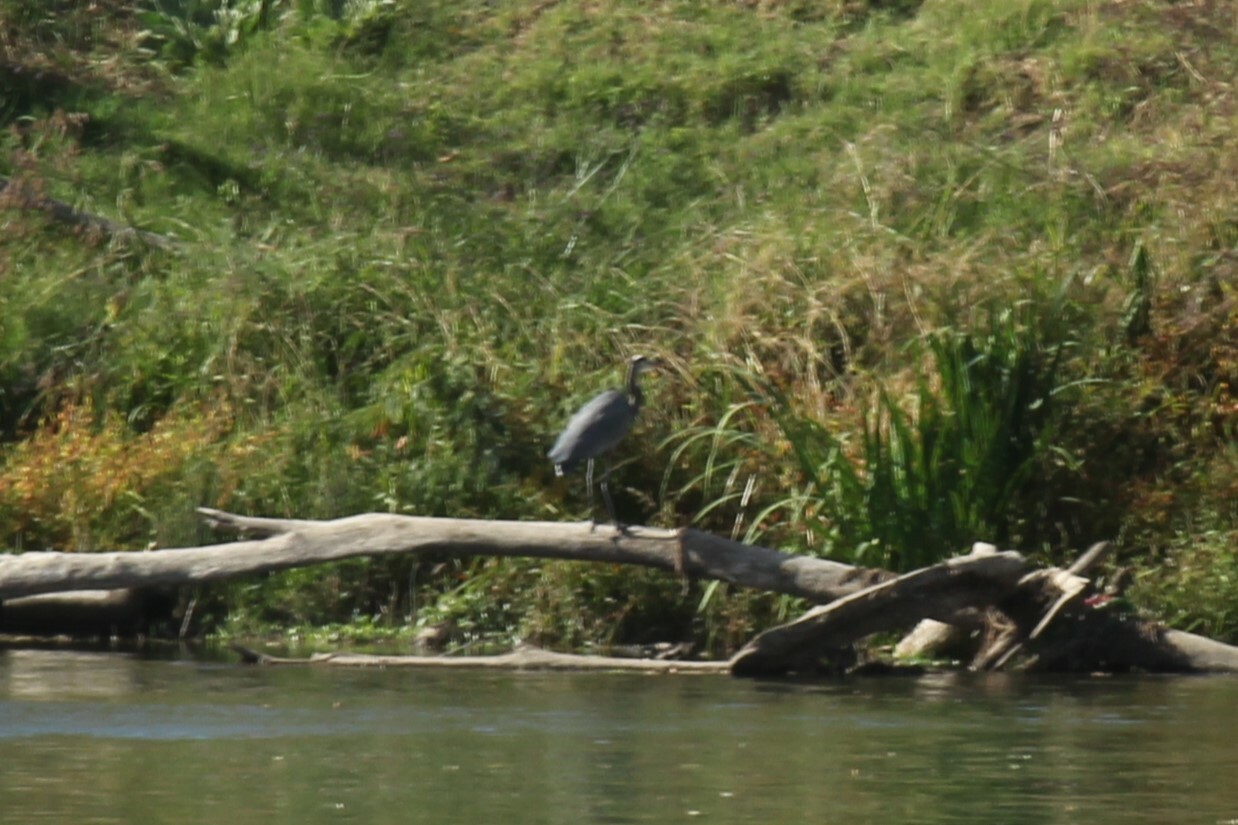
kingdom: Animalia
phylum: Chordata
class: Aves
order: Pelecaniformes
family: Ardeidae
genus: Ardea
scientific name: Ardea herodias
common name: Great blue heron
